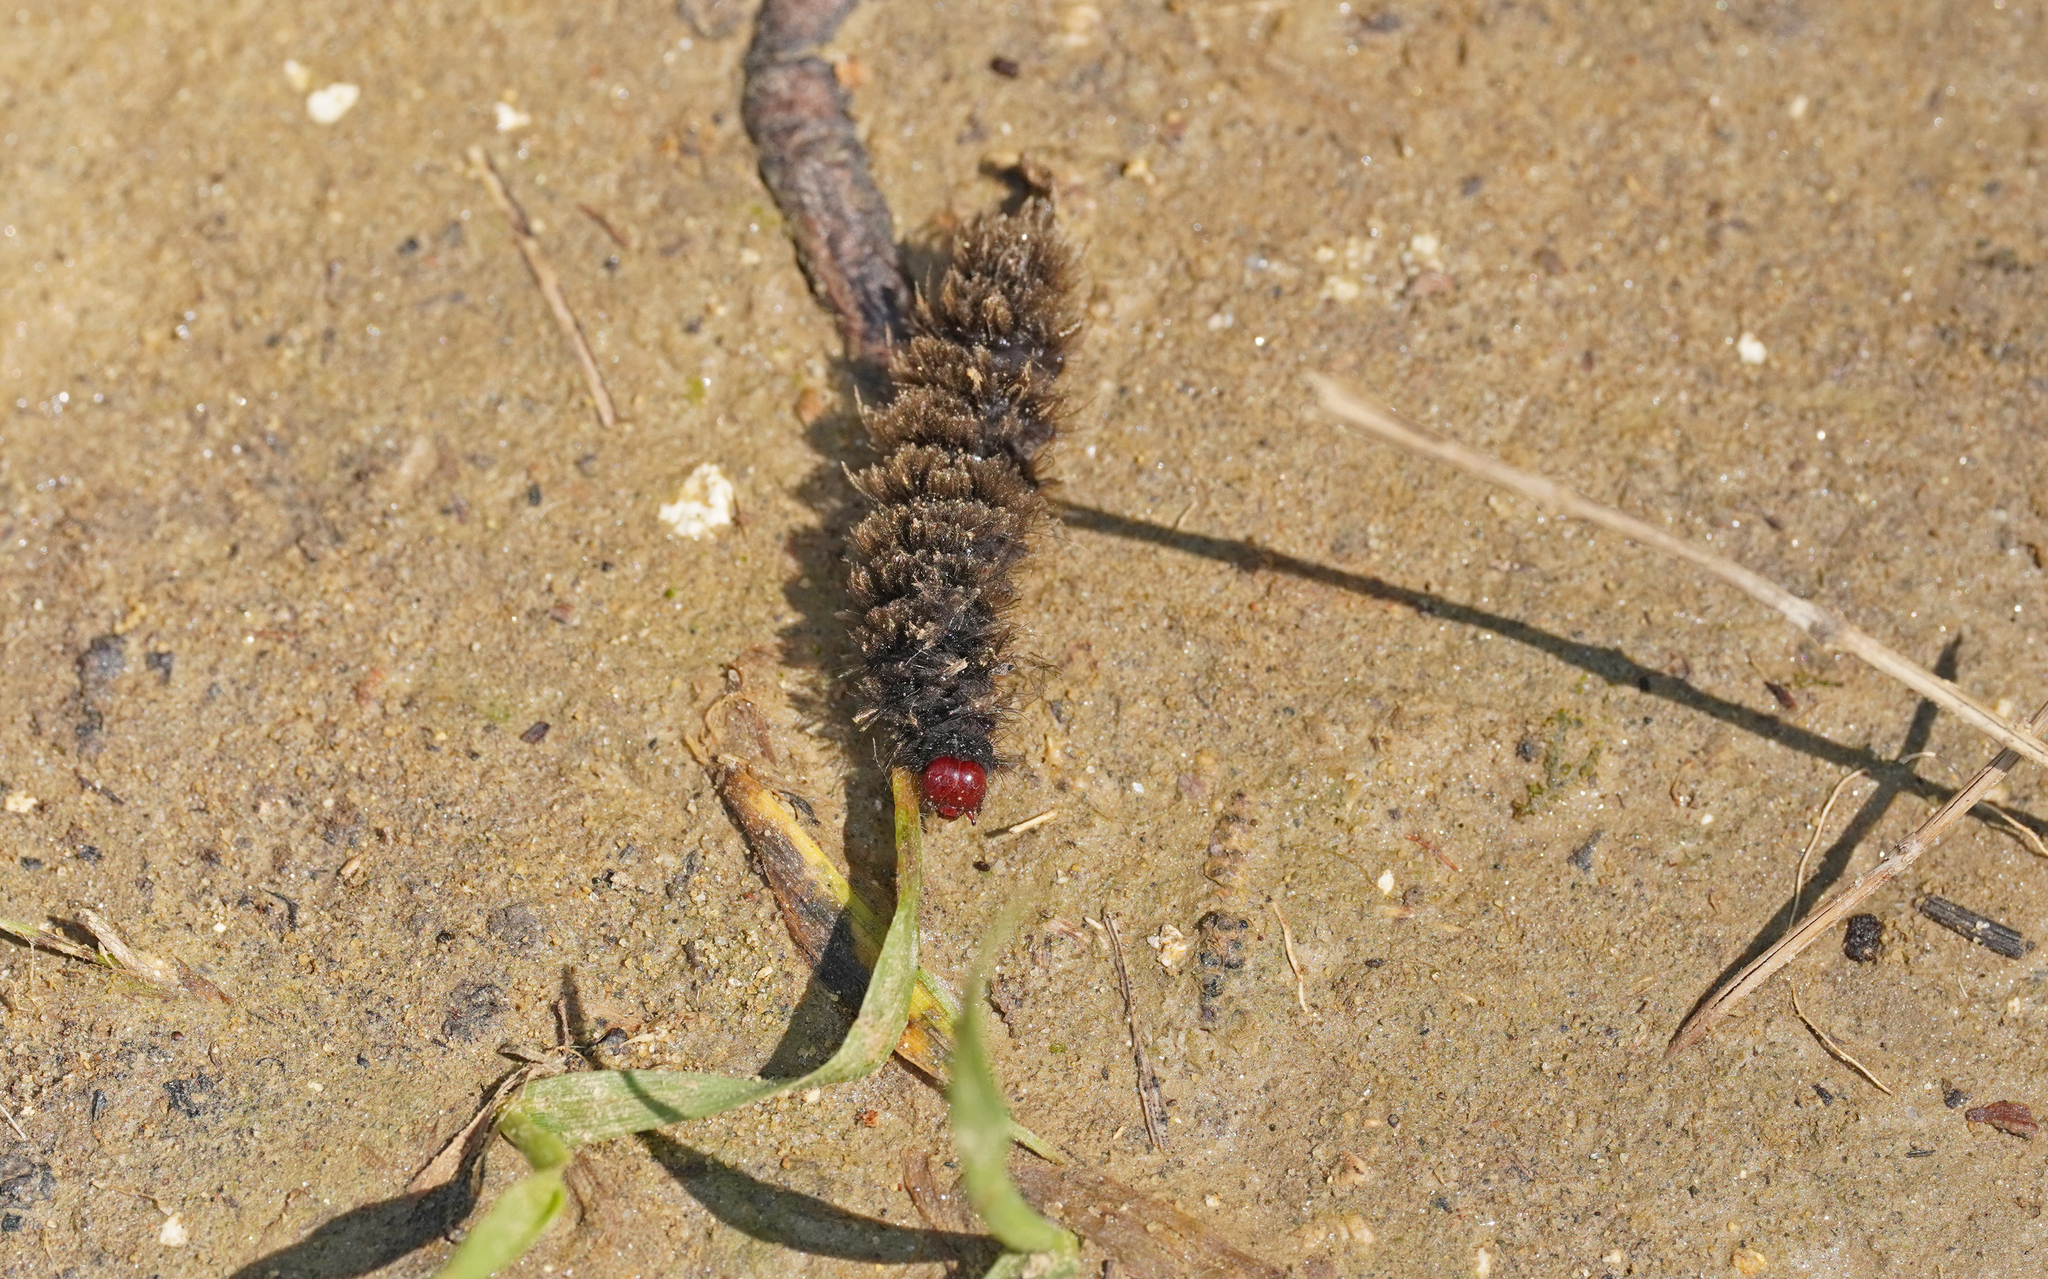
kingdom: Animalia
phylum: Arthropoda
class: Insecta
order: Lepidoptera
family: Erebidae
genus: Amata
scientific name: Amata phegea
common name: Nine-spotted
